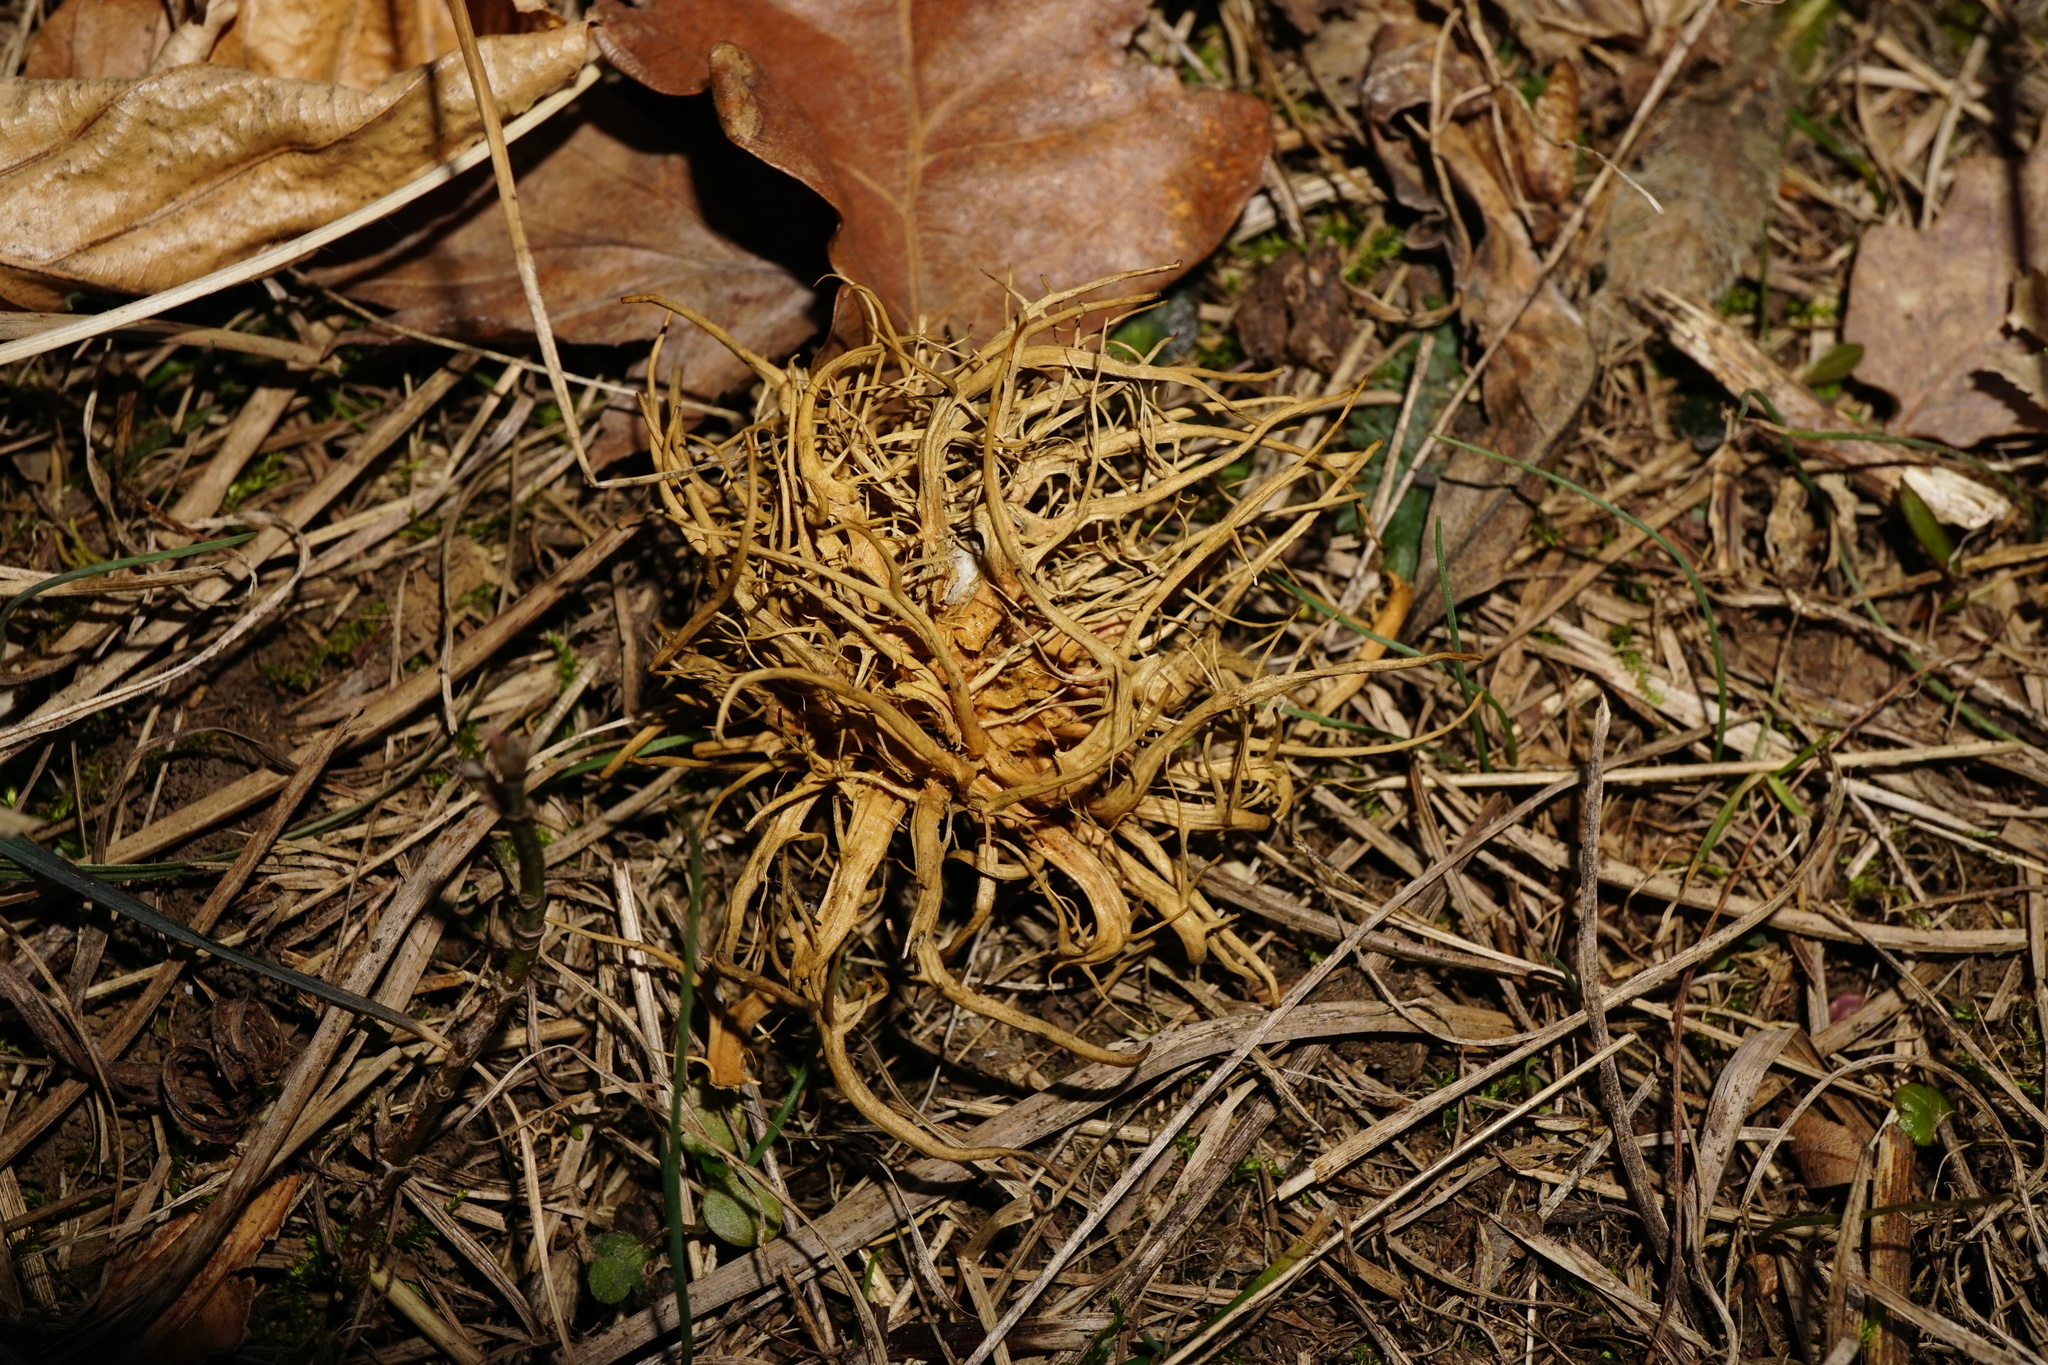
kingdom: Animalia
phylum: Arthropoda
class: Insecta
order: Hymenoptera
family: Cynipidae
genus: Andricus
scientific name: Andricus caputmedusae
